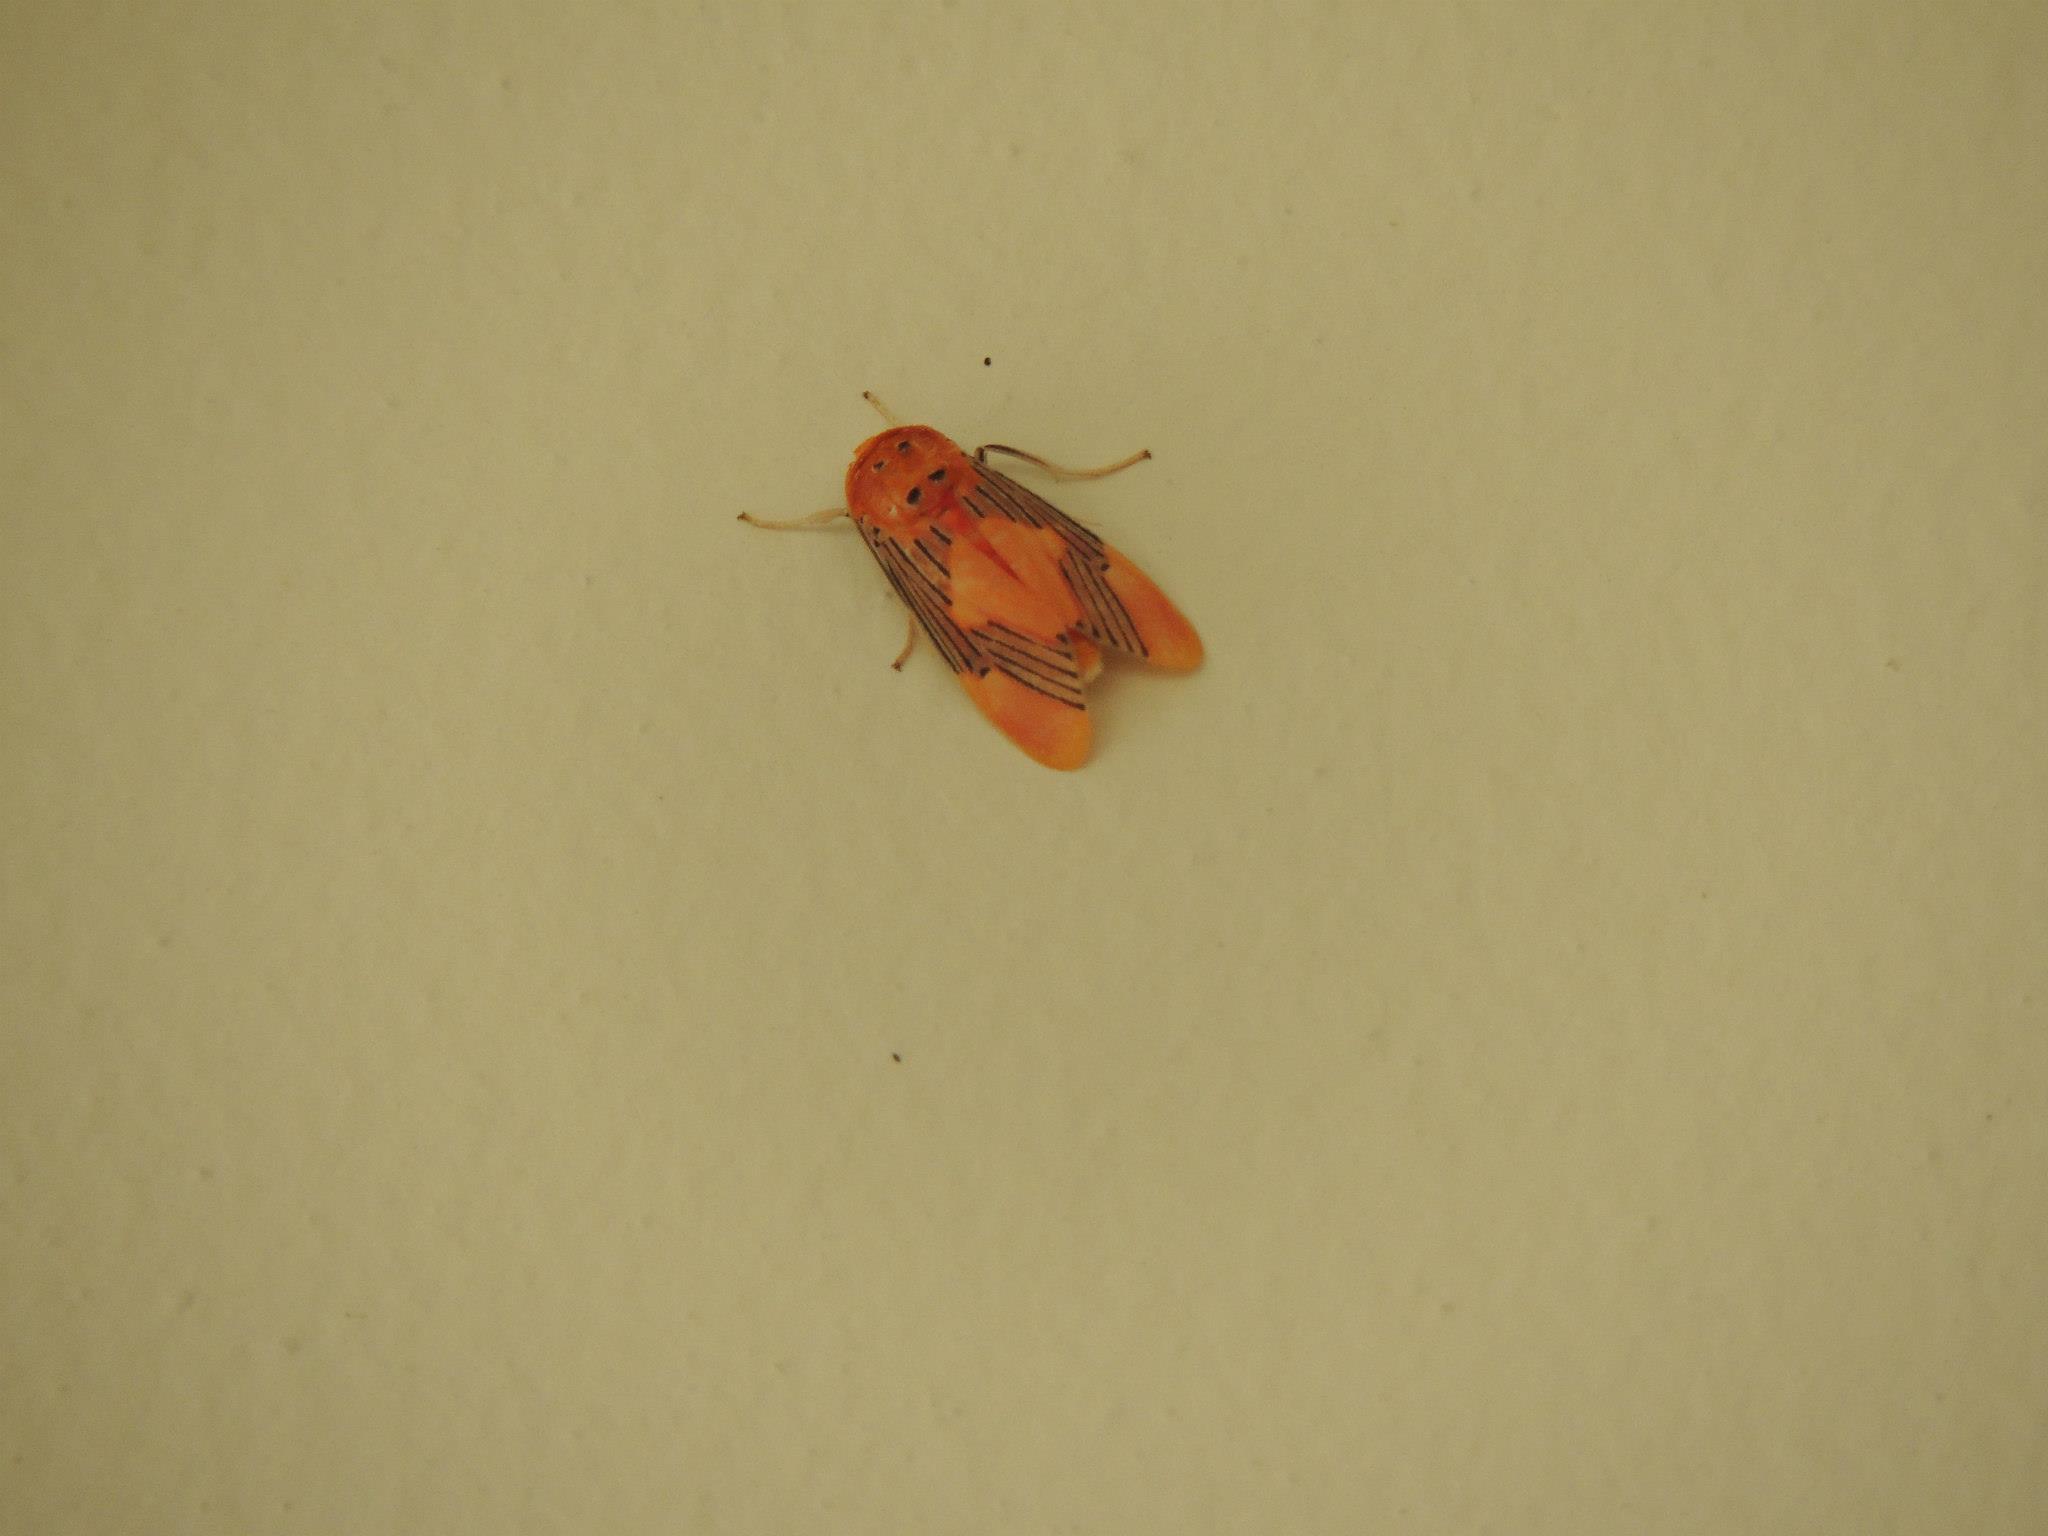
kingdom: Animalia
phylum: Arthropoda
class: Insecta
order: Lepidoptera
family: Erebidae
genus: Lepidokirbyia
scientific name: Lepidokirbyia vittipes
